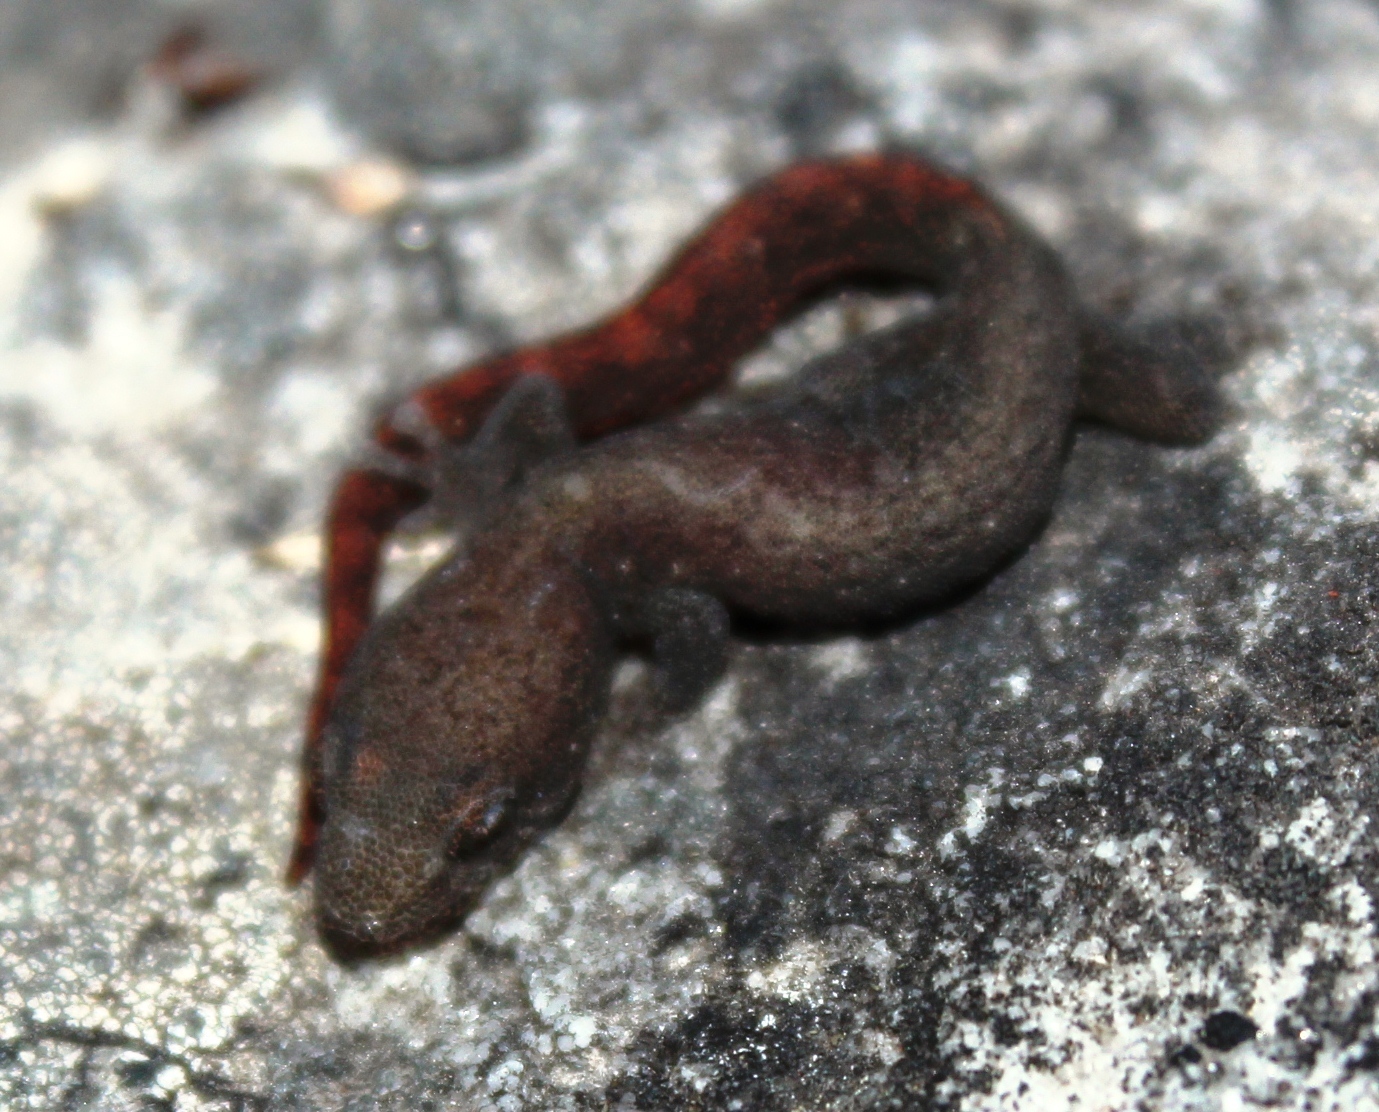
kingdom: Animalia
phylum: Chordata
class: Squamata
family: Gekkonidae
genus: Afrogecko
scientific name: Afrogecko porphyreus
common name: Marbled leaf-toed gecko
